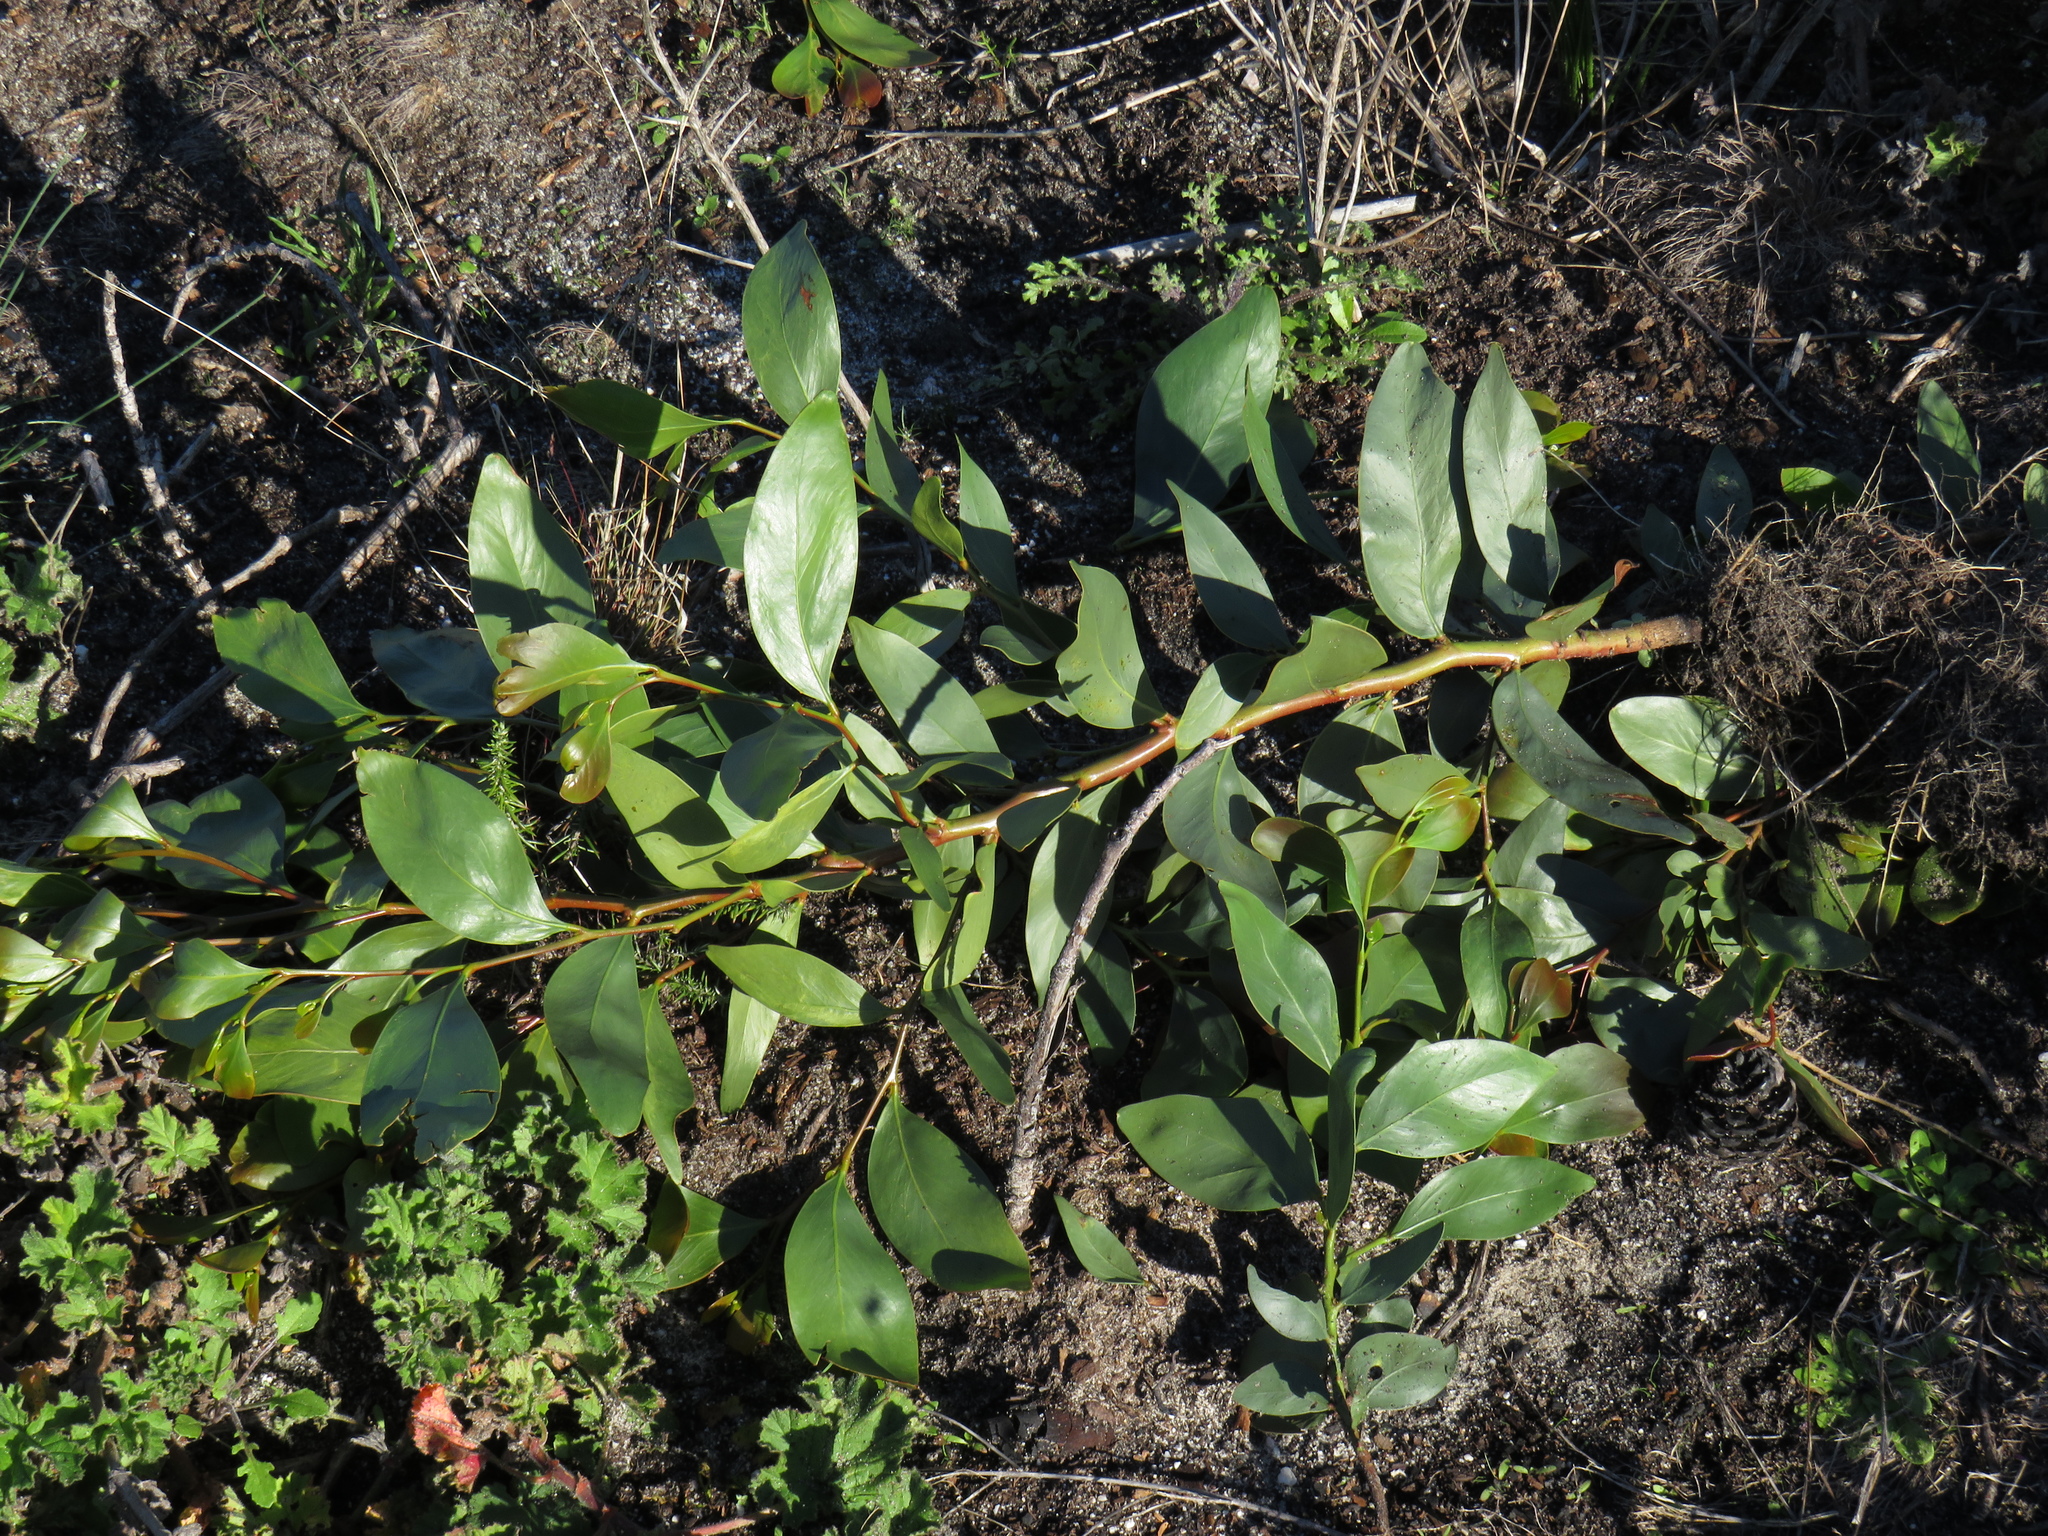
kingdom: Plantae
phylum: Tracheophyta
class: Magnoliopsida
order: Fabales
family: Fabaceae
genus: Acacia
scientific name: Acacia pycnantha
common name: Golden wattle
